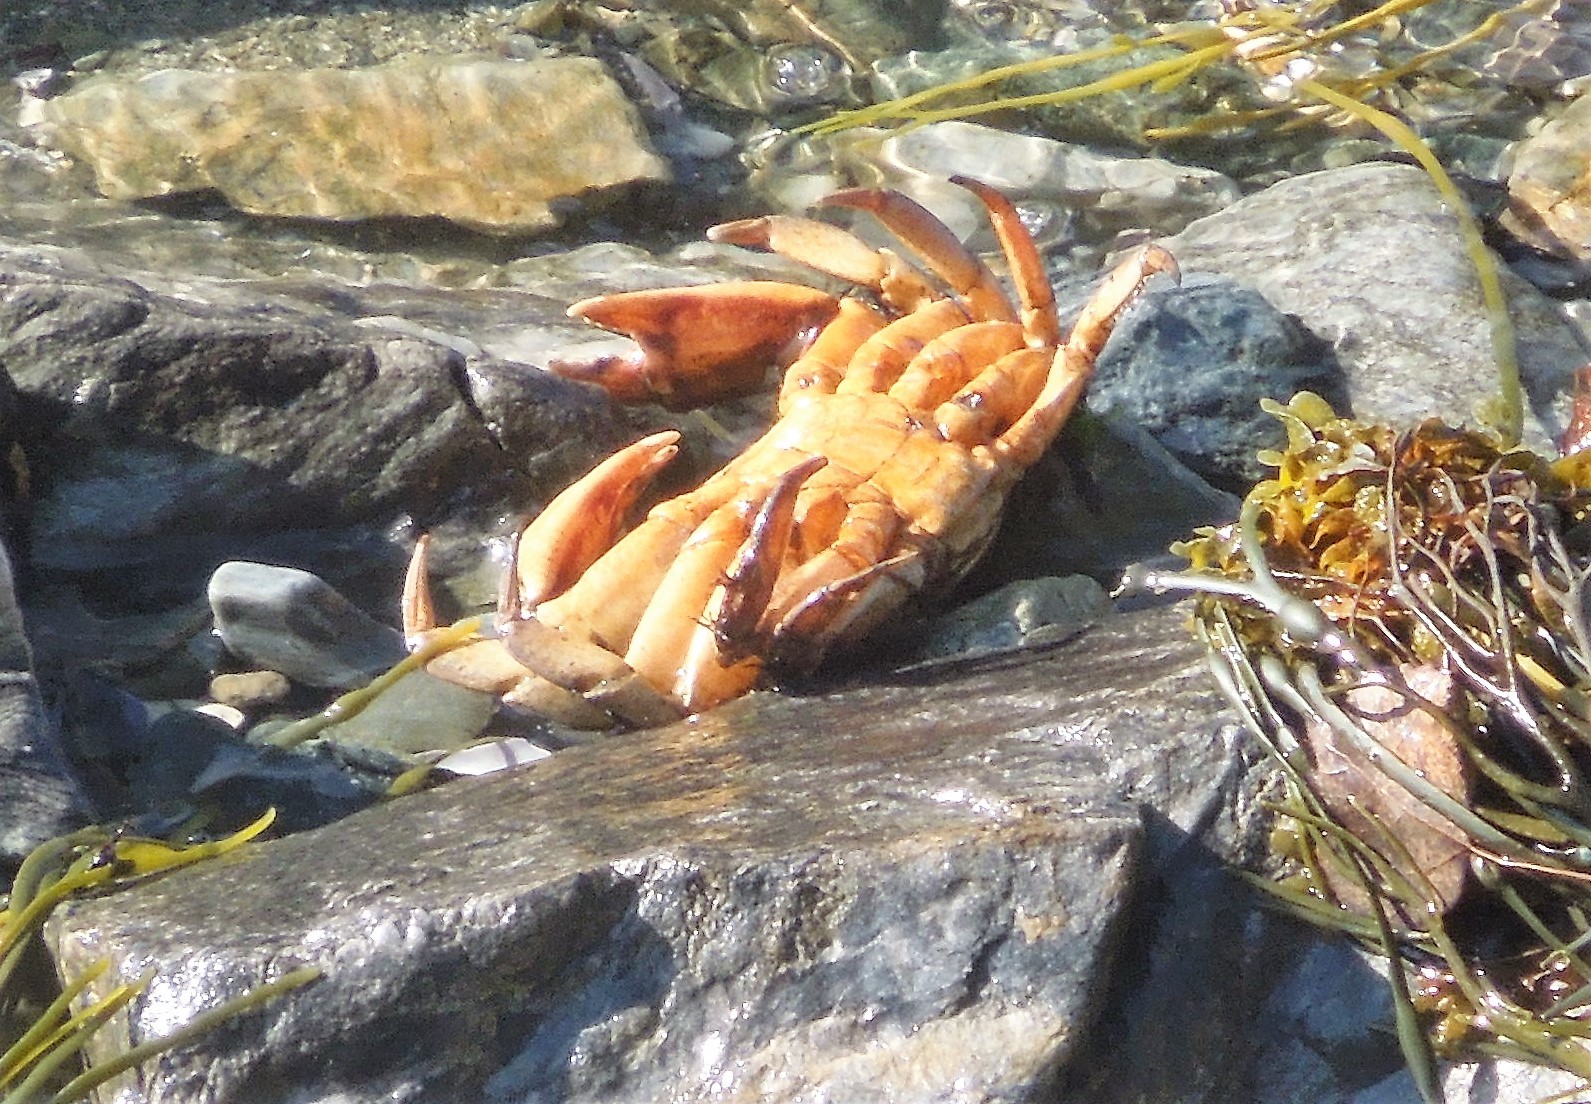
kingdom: Animalia
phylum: Arthropoda
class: Malacostraca
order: Decapoda
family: Carcinidae
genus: Carcinus
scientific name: Carcinus maenas
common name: European green crab
